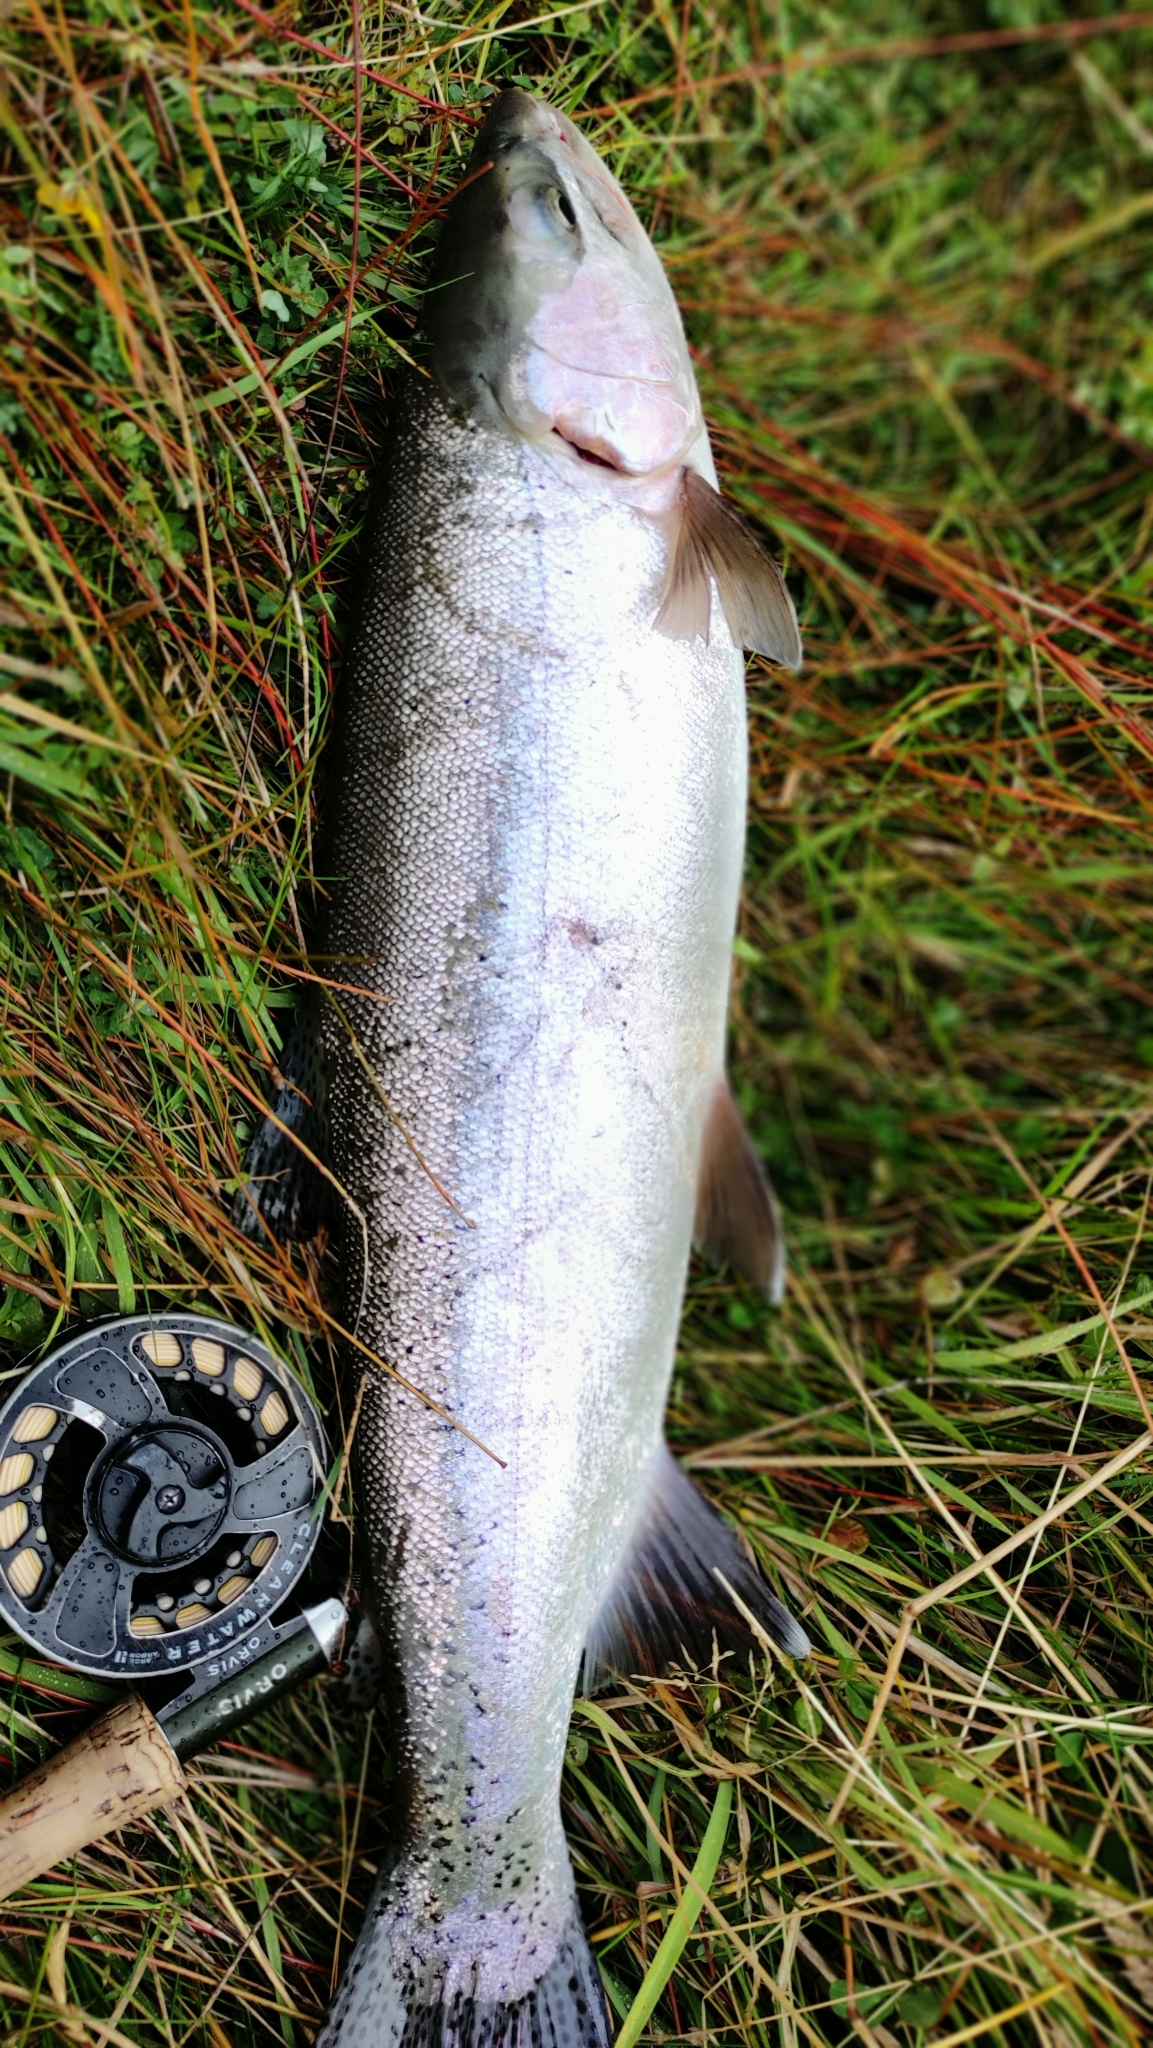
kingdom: Animalia
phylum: Chordata
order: Salmoniformes
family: Salmonidae
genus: Oncorhynchus
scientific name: Oncorhynchus mykiss
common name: Rainbow trout
